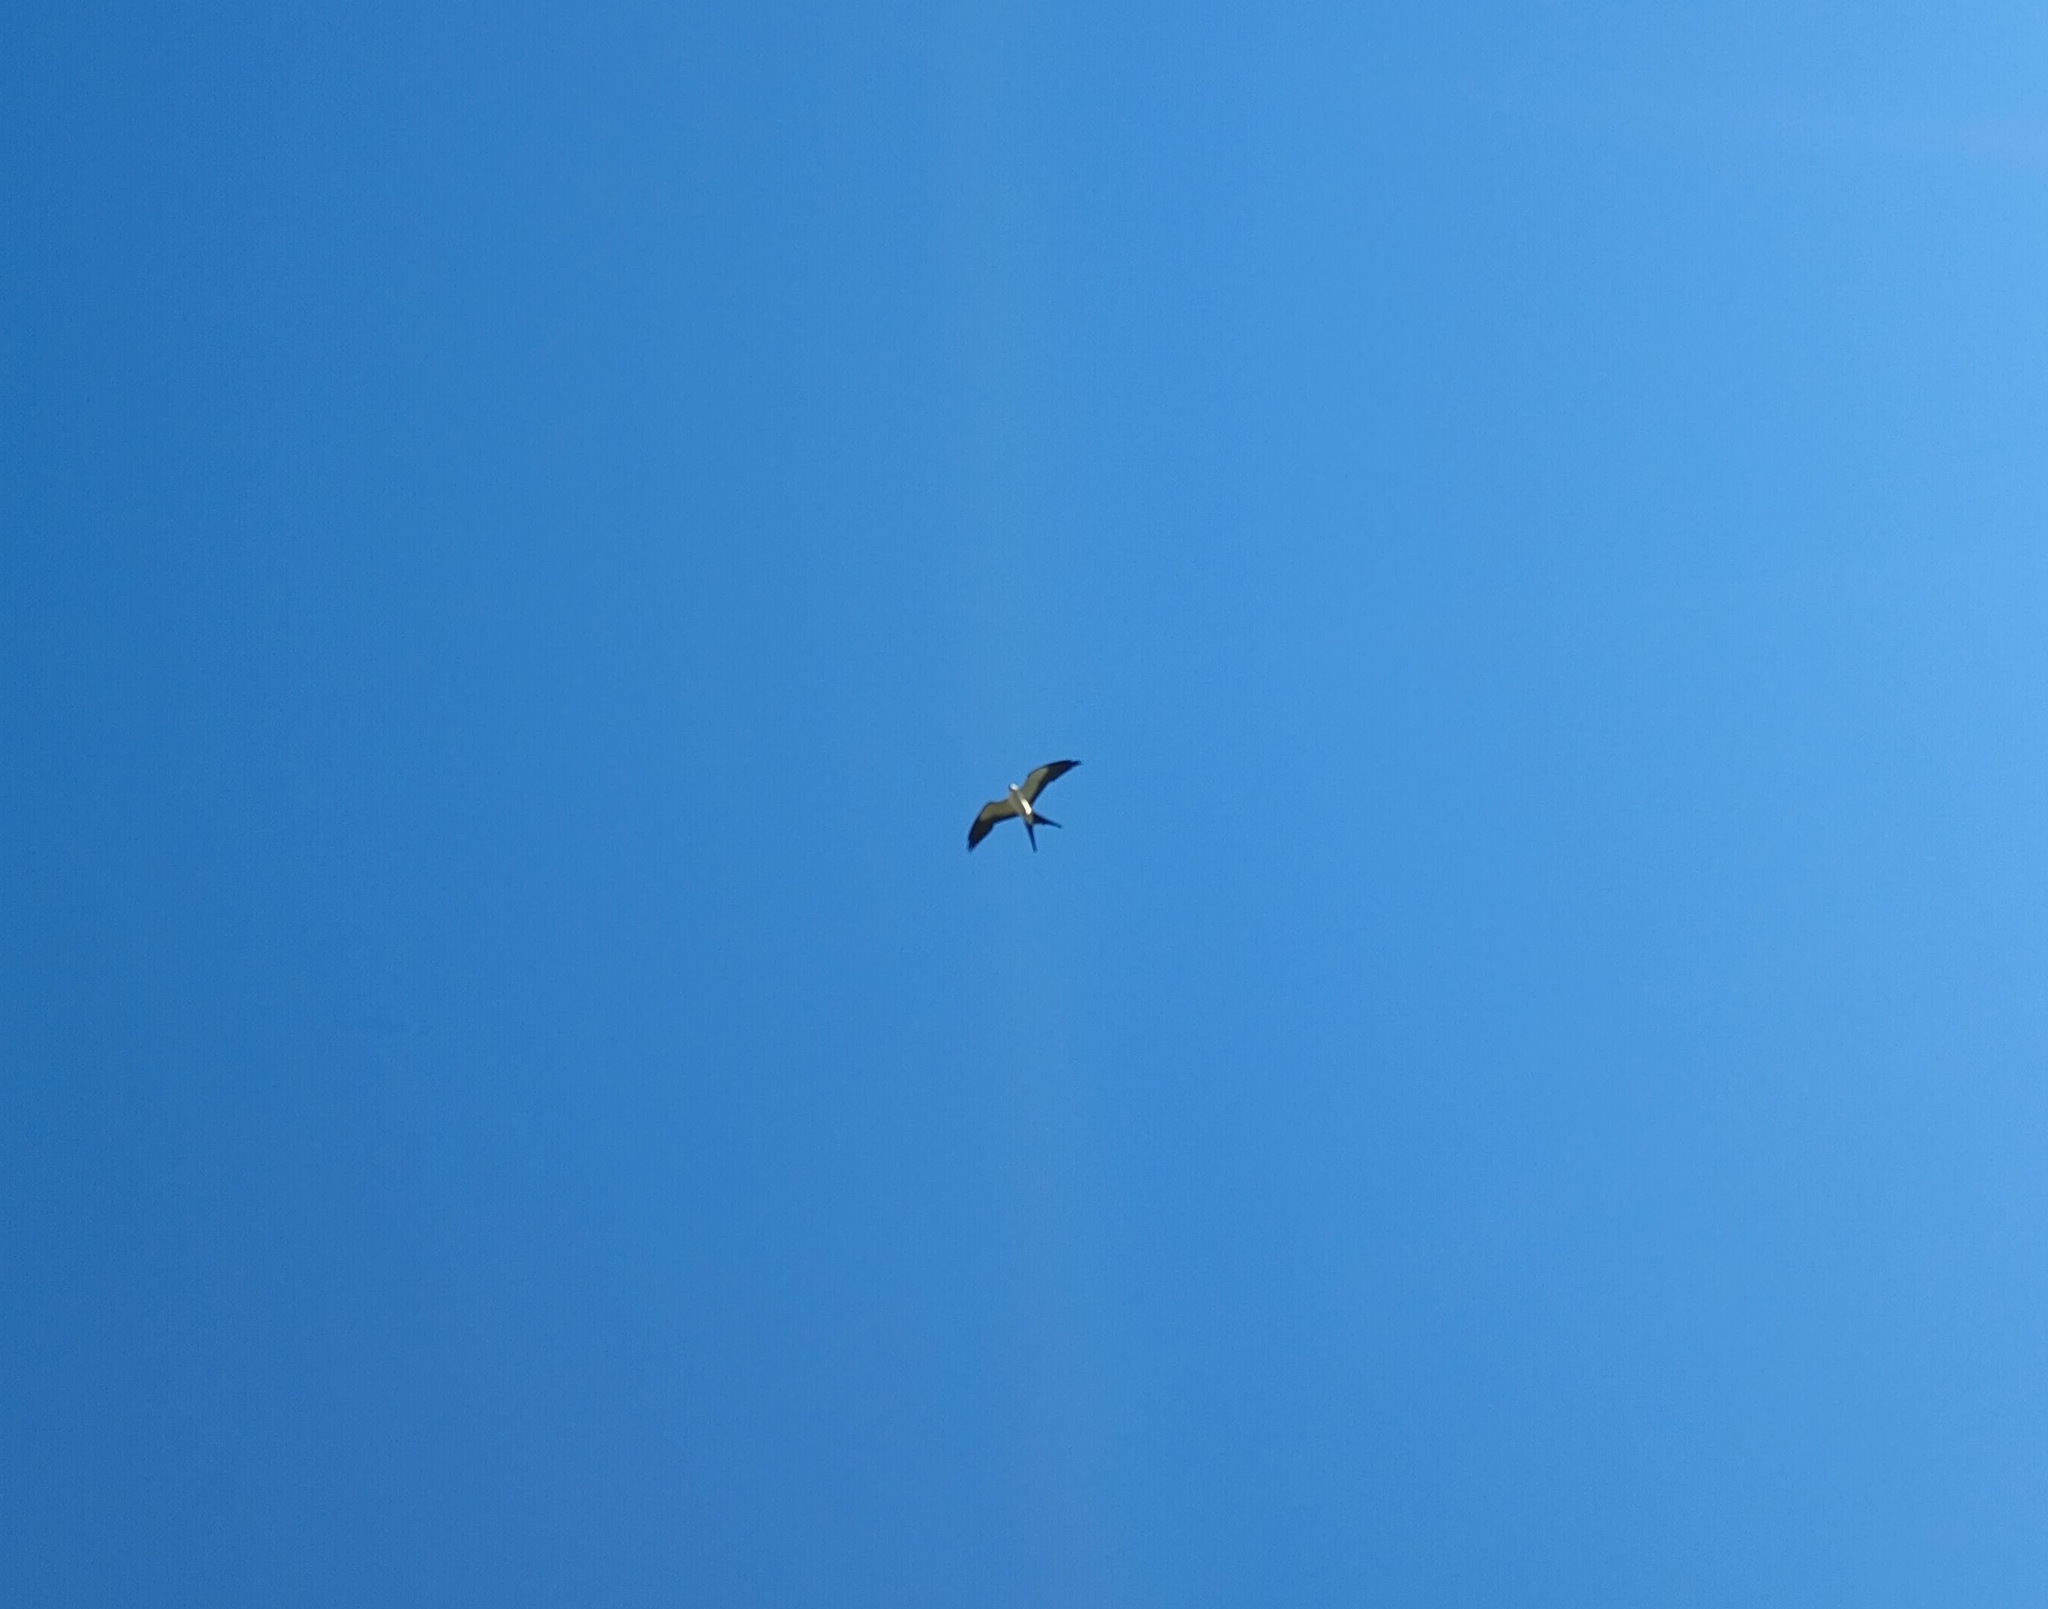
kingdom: Animalia
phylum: Chordata
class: Aves
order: Accipitriformes
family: Accipitridae
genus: Elanoides
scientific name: Elanoides forficatus
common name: Swallow-tailed kite
